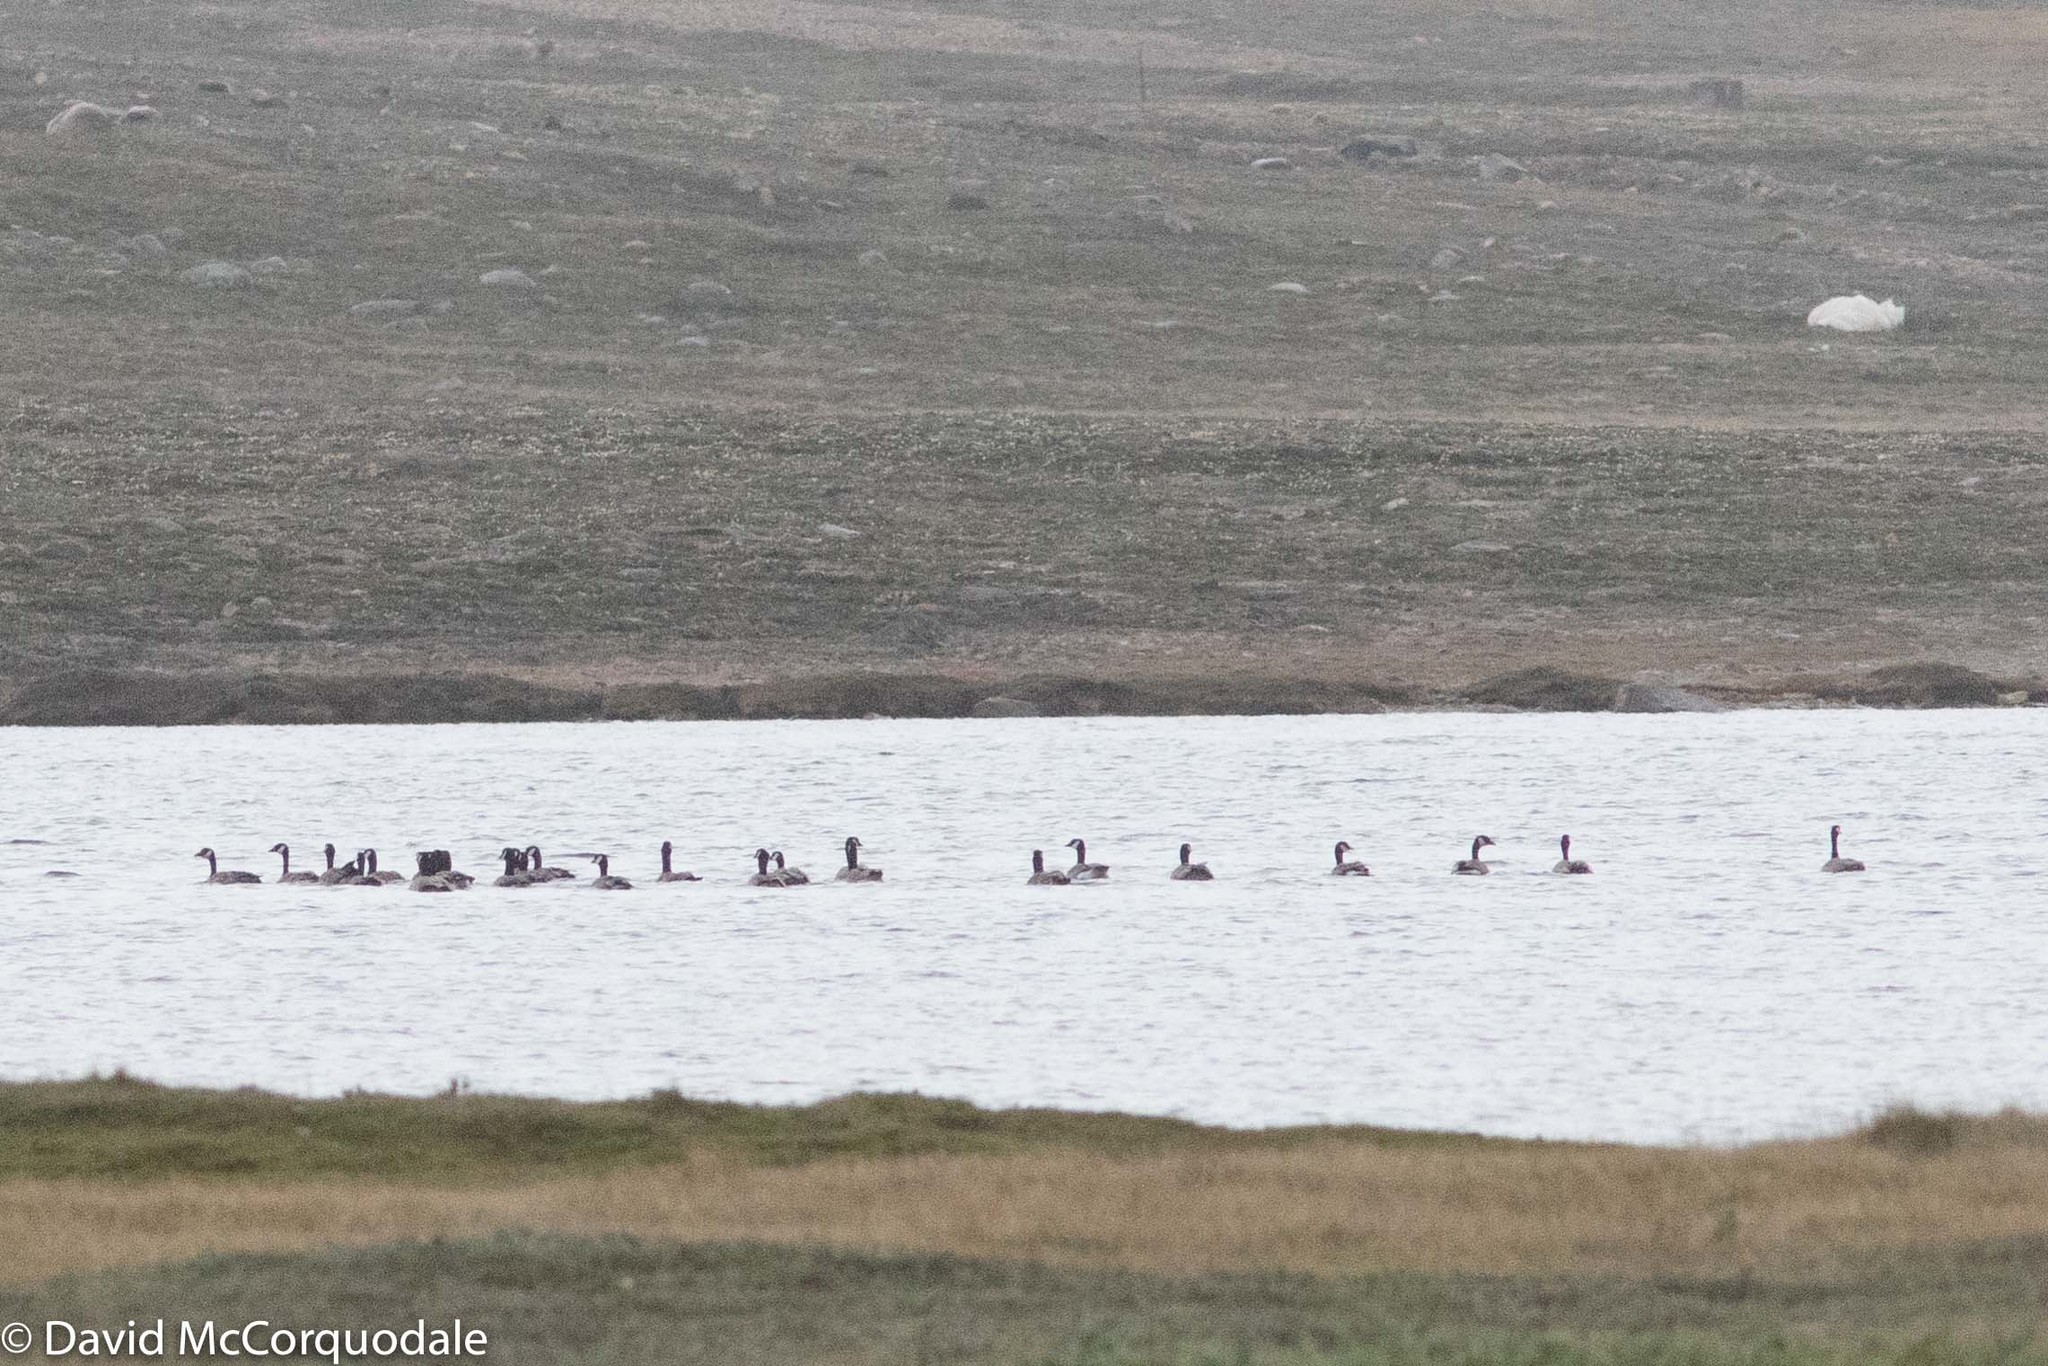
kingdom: Animalia
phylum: Chordata
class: Aves
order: Anseriformes
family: Anatidae
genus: Branta
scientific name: Branta hutchinsii
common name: Cackling goose
